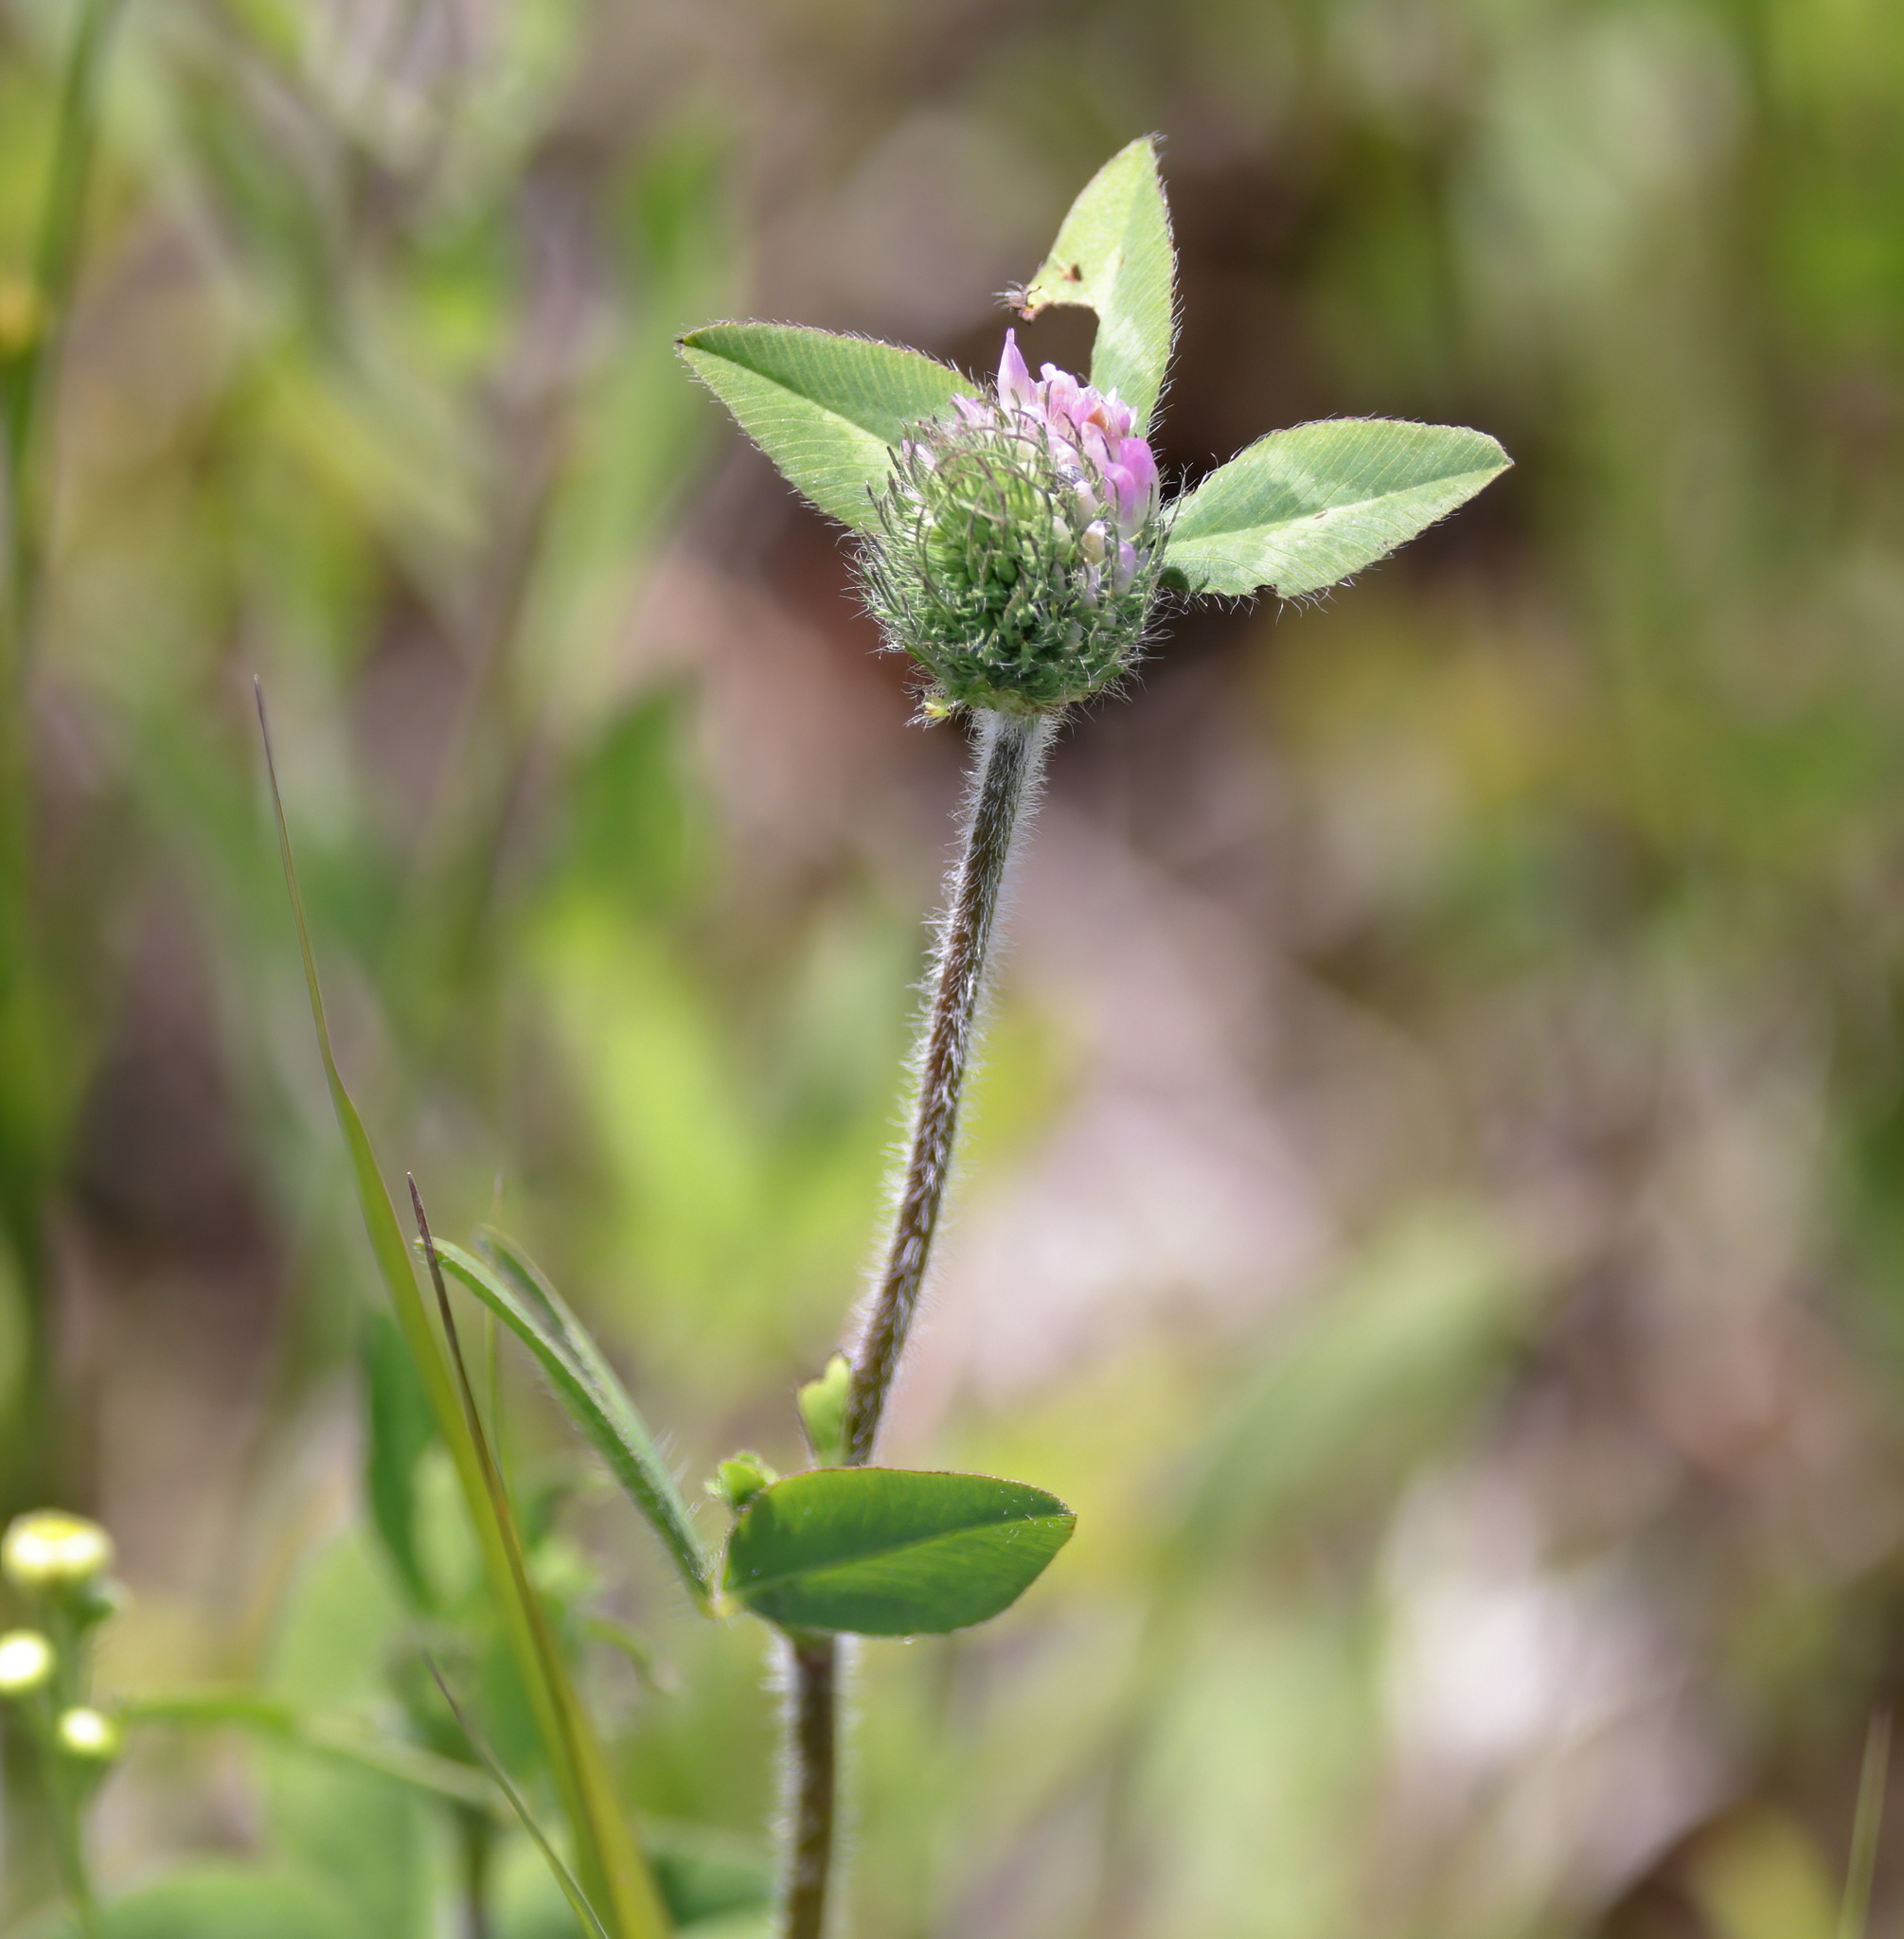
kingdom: Plantae
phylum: Tracheophyta
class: Magnoliopsida
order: Fabales
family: Fabaceae
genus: Trifolium
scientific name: Trifolium pratense
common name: Red clover
